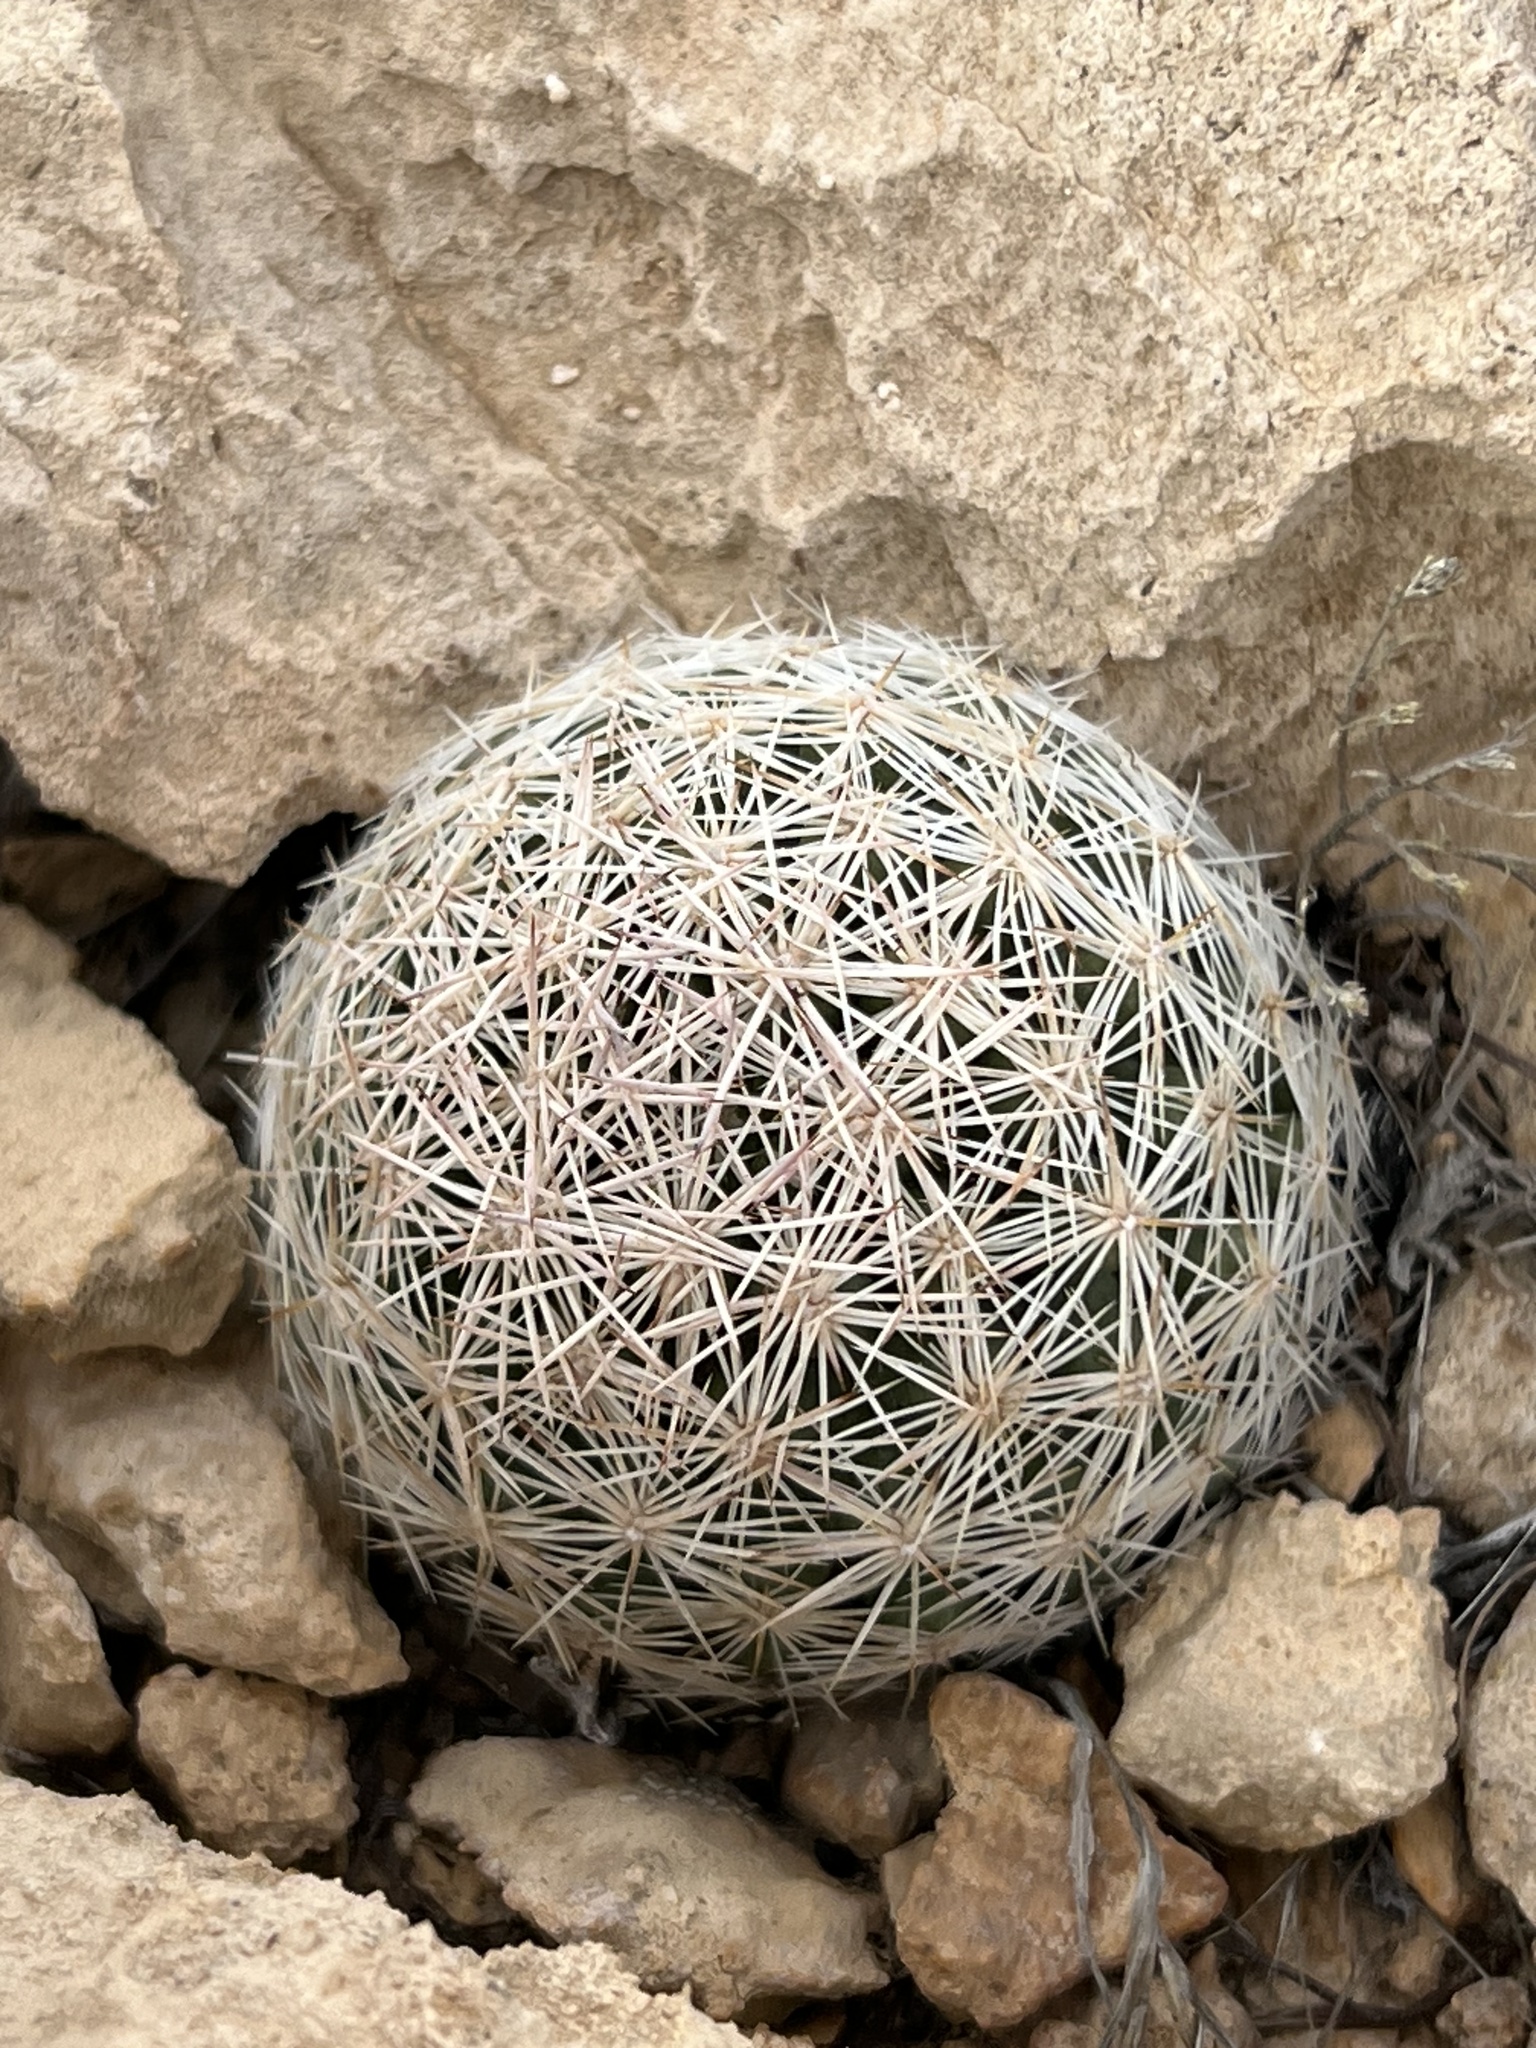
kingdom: Plantae
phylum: Tracheophyta
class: Magnoliopsida
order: Caryophyllales
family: Cactaceae
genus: Pelecyphora
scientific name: Pelecyphora dasyacantha
